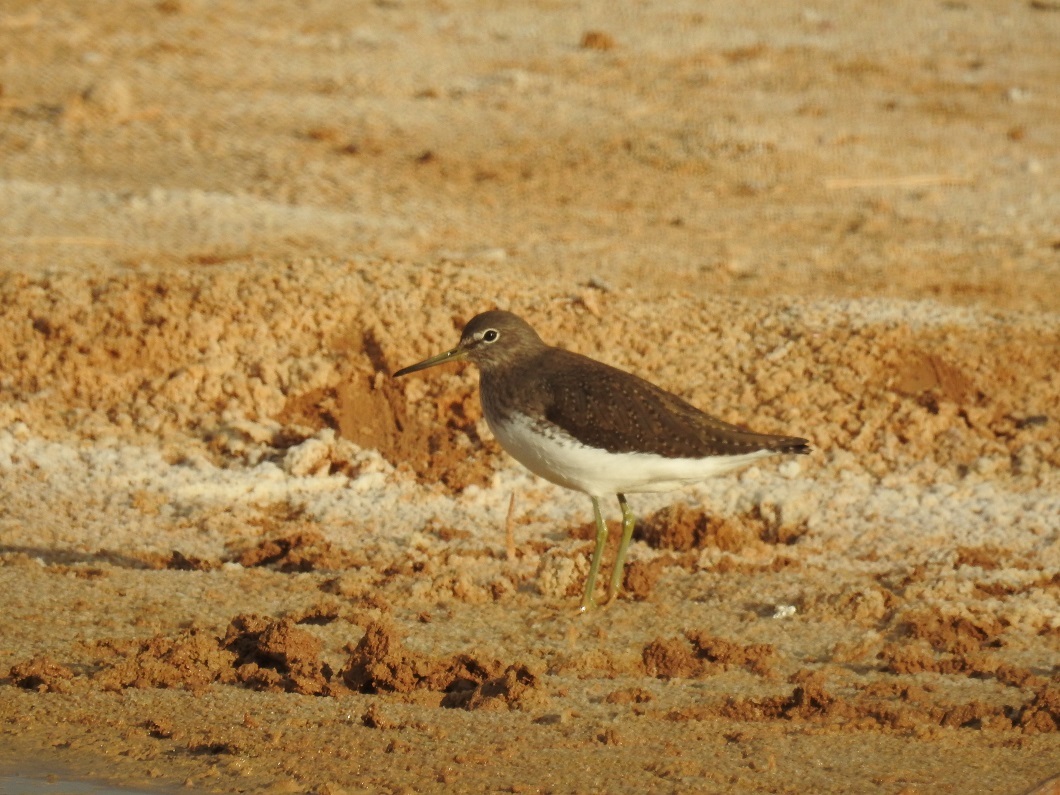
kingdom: Animalia
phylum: Chordata
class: Aves
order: Charadriiformes
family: Scolopacidae
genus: Tringa
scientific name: Tringa ochropus
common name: Green sandpiper
